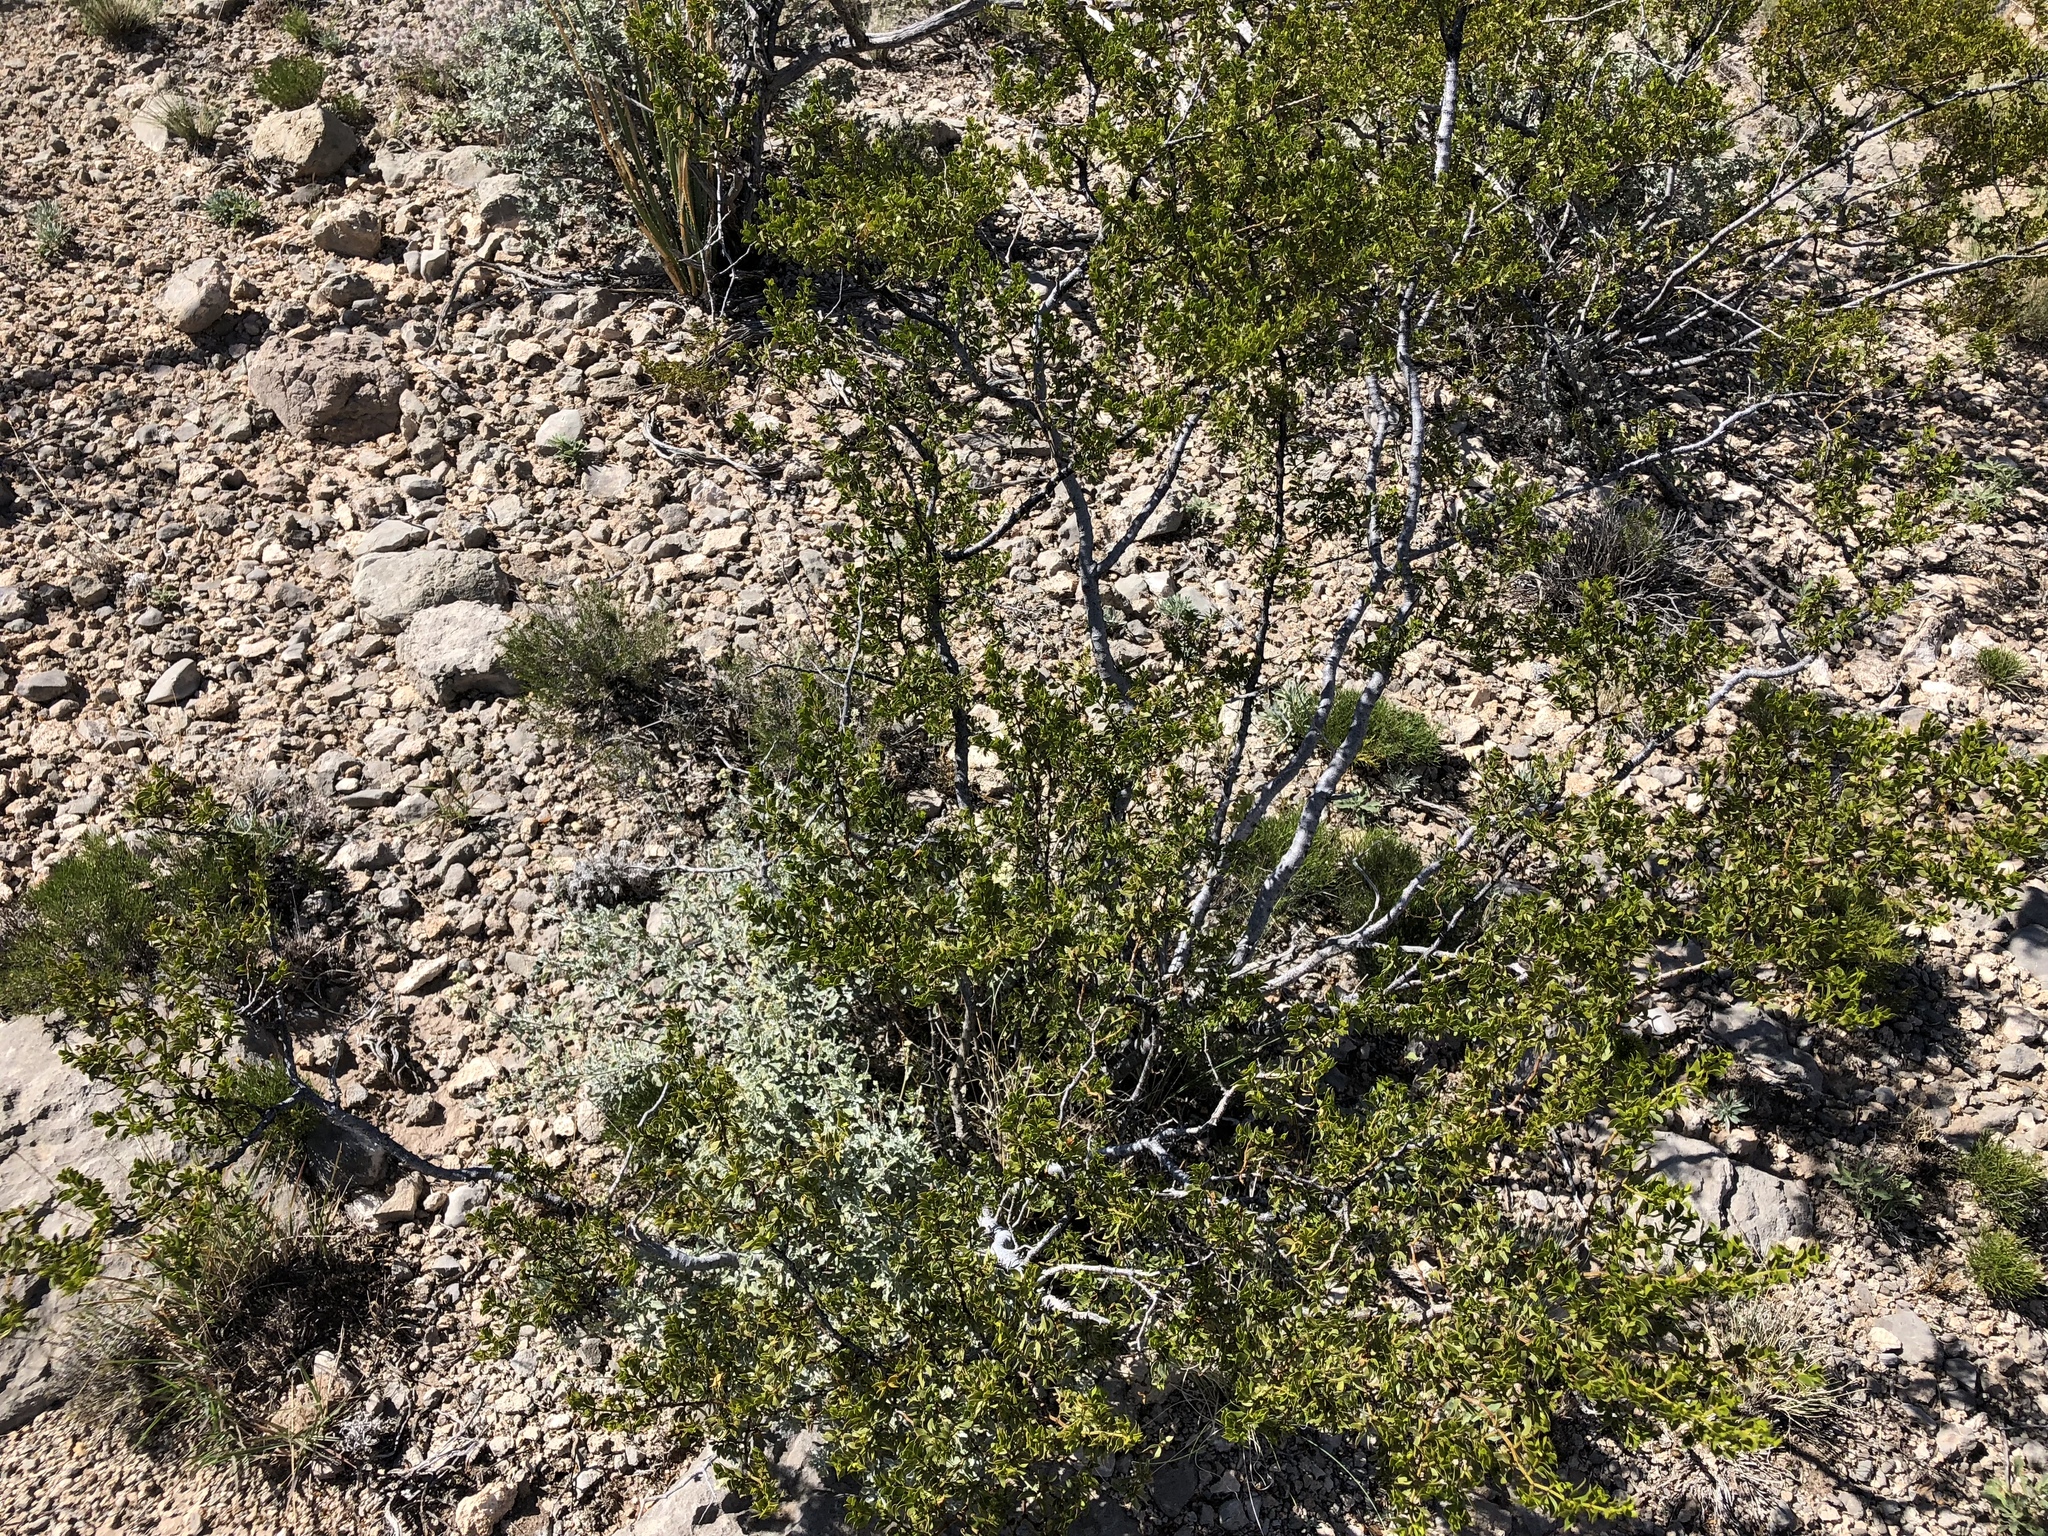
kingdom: Plantae
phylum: Tracheophyta
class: Magnoliopsida
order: Zygophyllales
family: Zygophyllaceae
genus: Larrea
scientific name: Larrea tridentata
